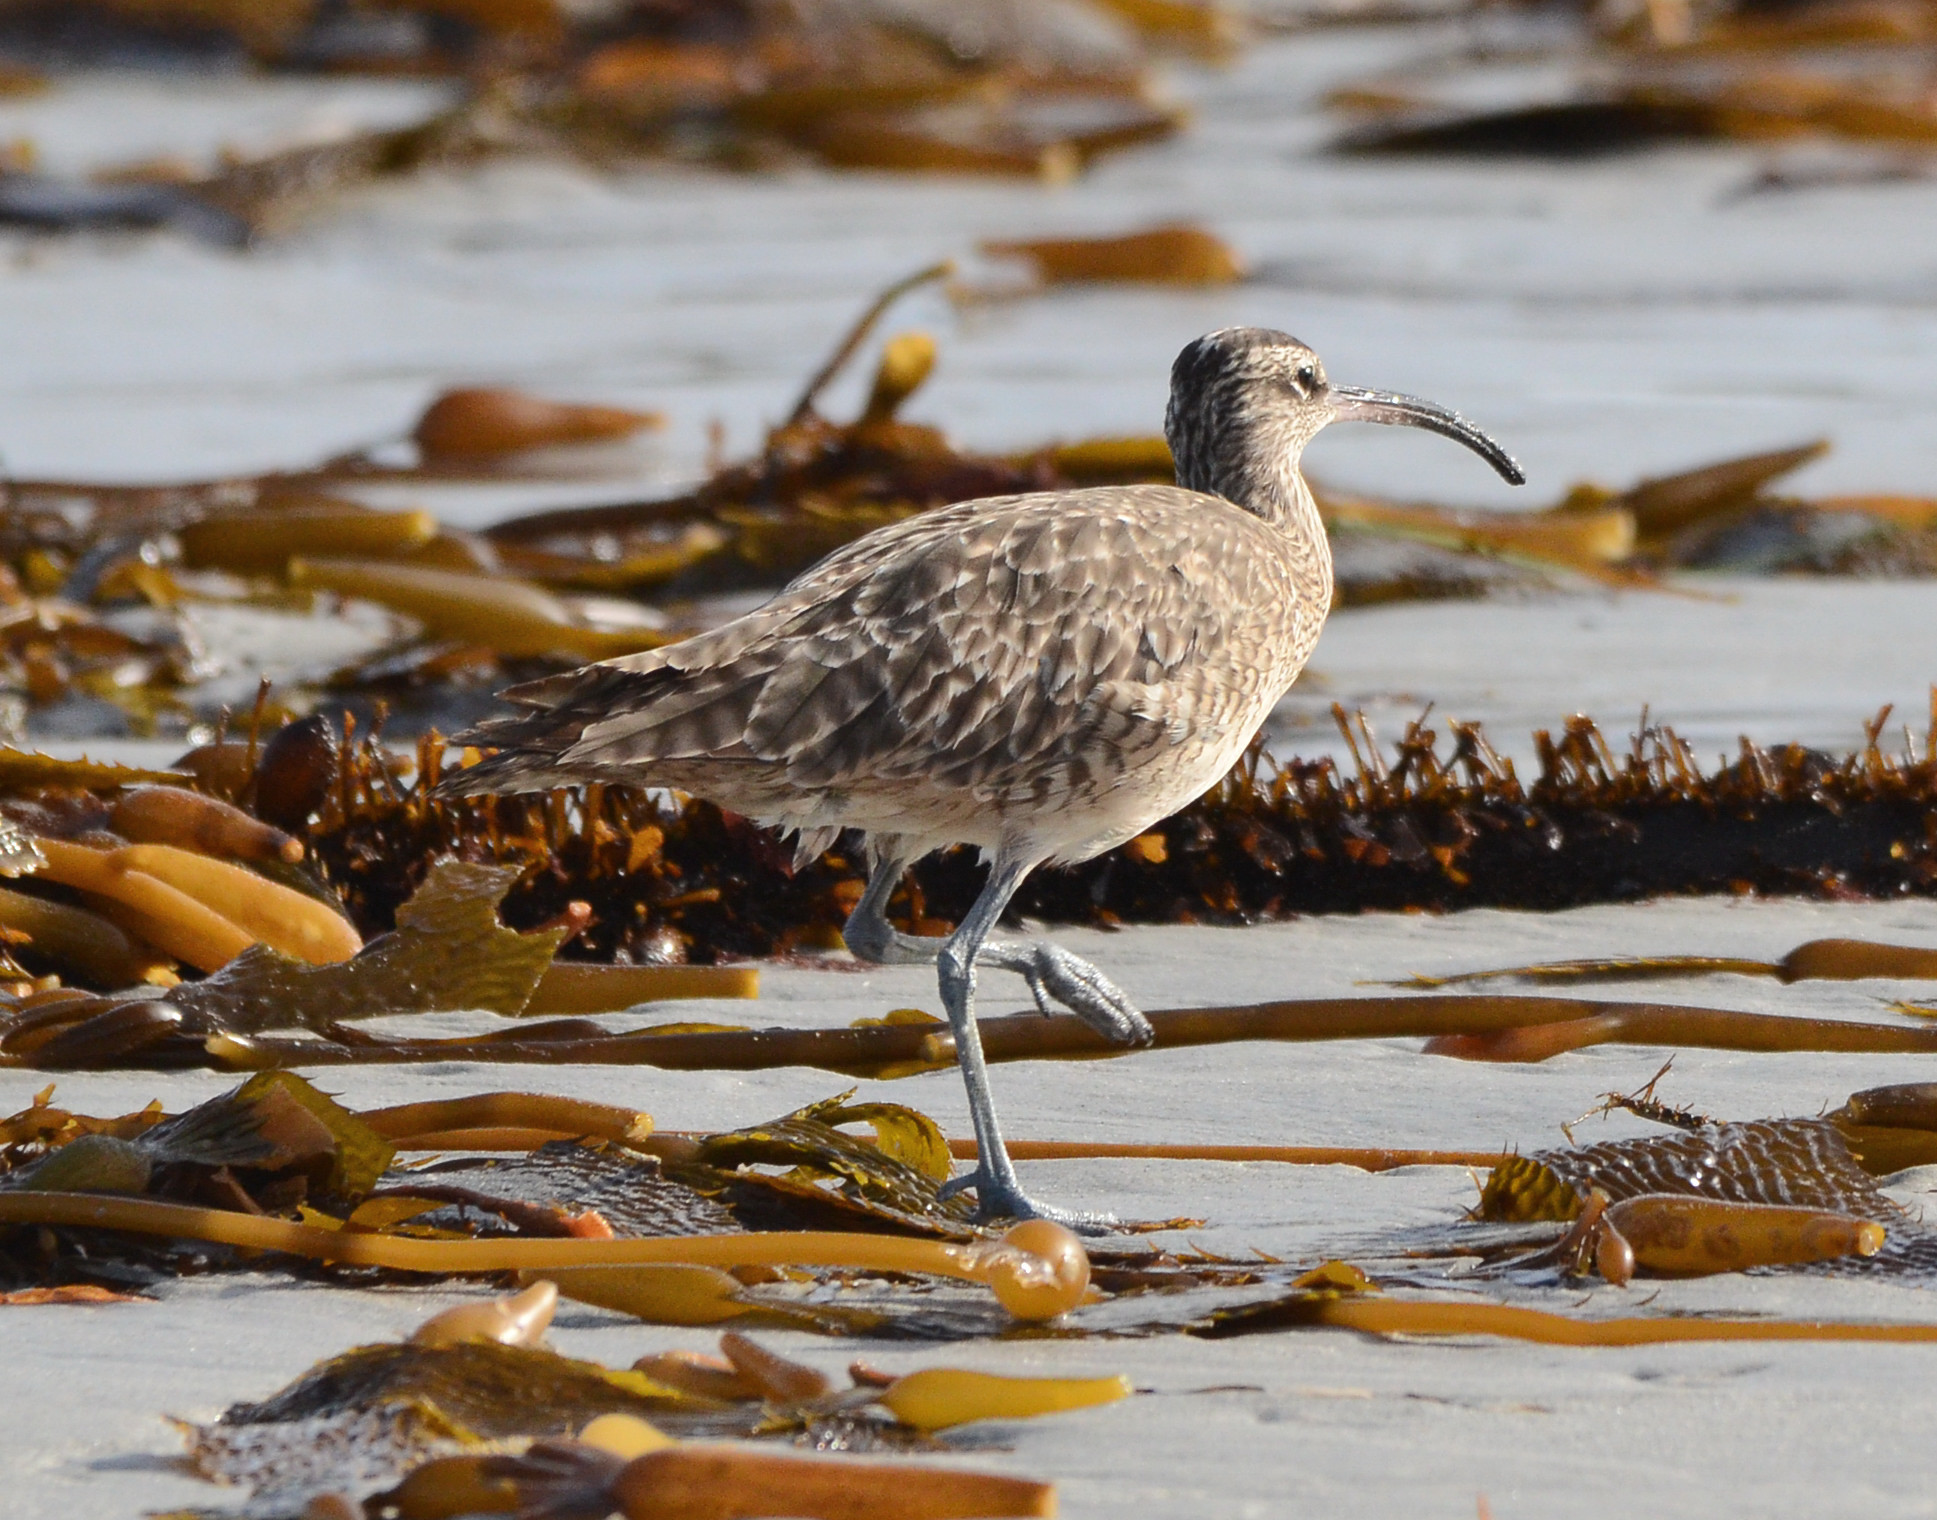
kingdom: Animalia
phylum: Chordata
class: Aves
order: Charadriiformes
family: Scolopacidae
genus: Numenius
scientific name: Numenius phaeopus
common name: Whimbrel
